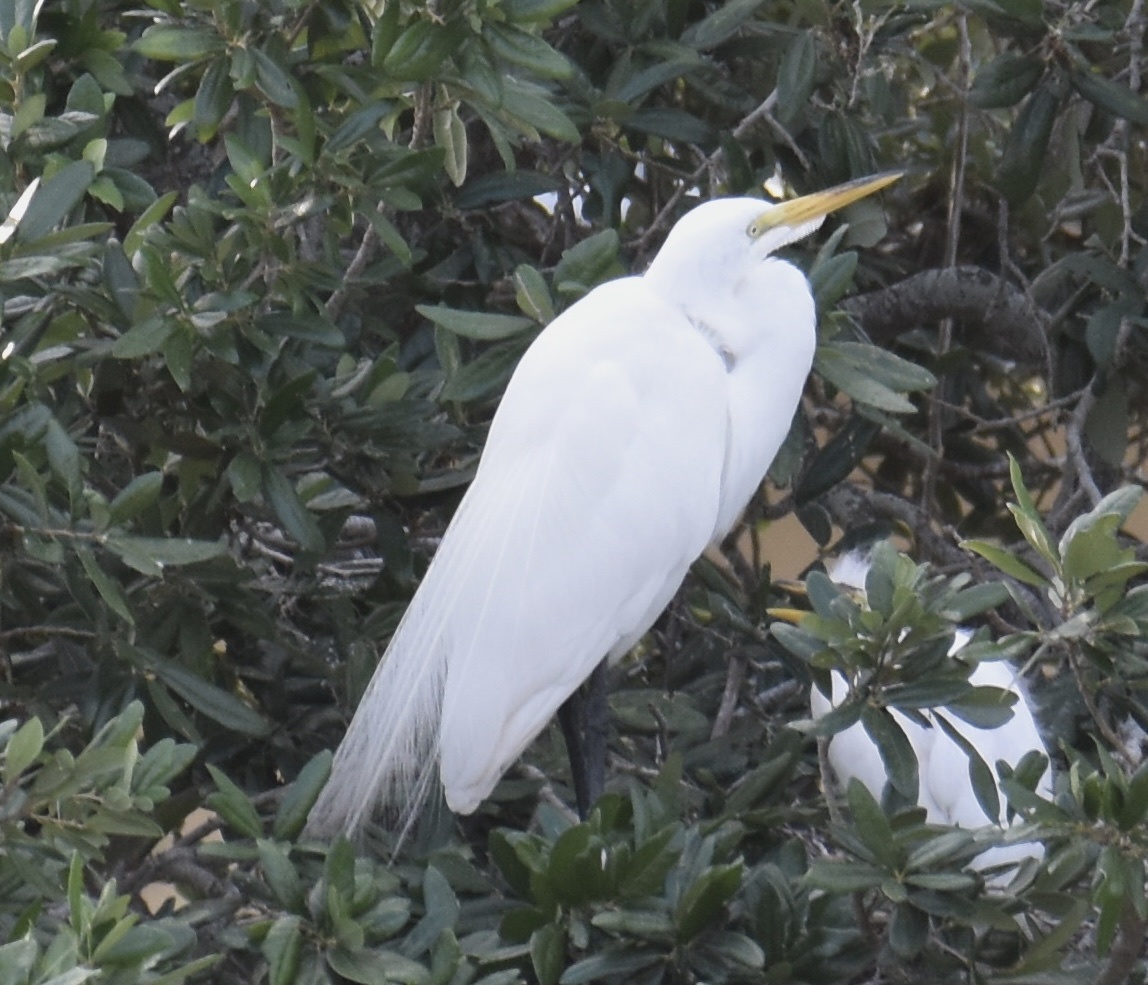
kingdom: Animalia
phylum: Chordata
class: Aves
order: Pelecaniformes
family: Ardeidae
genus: Ardea
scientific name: Ardea alba
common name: Great egret
